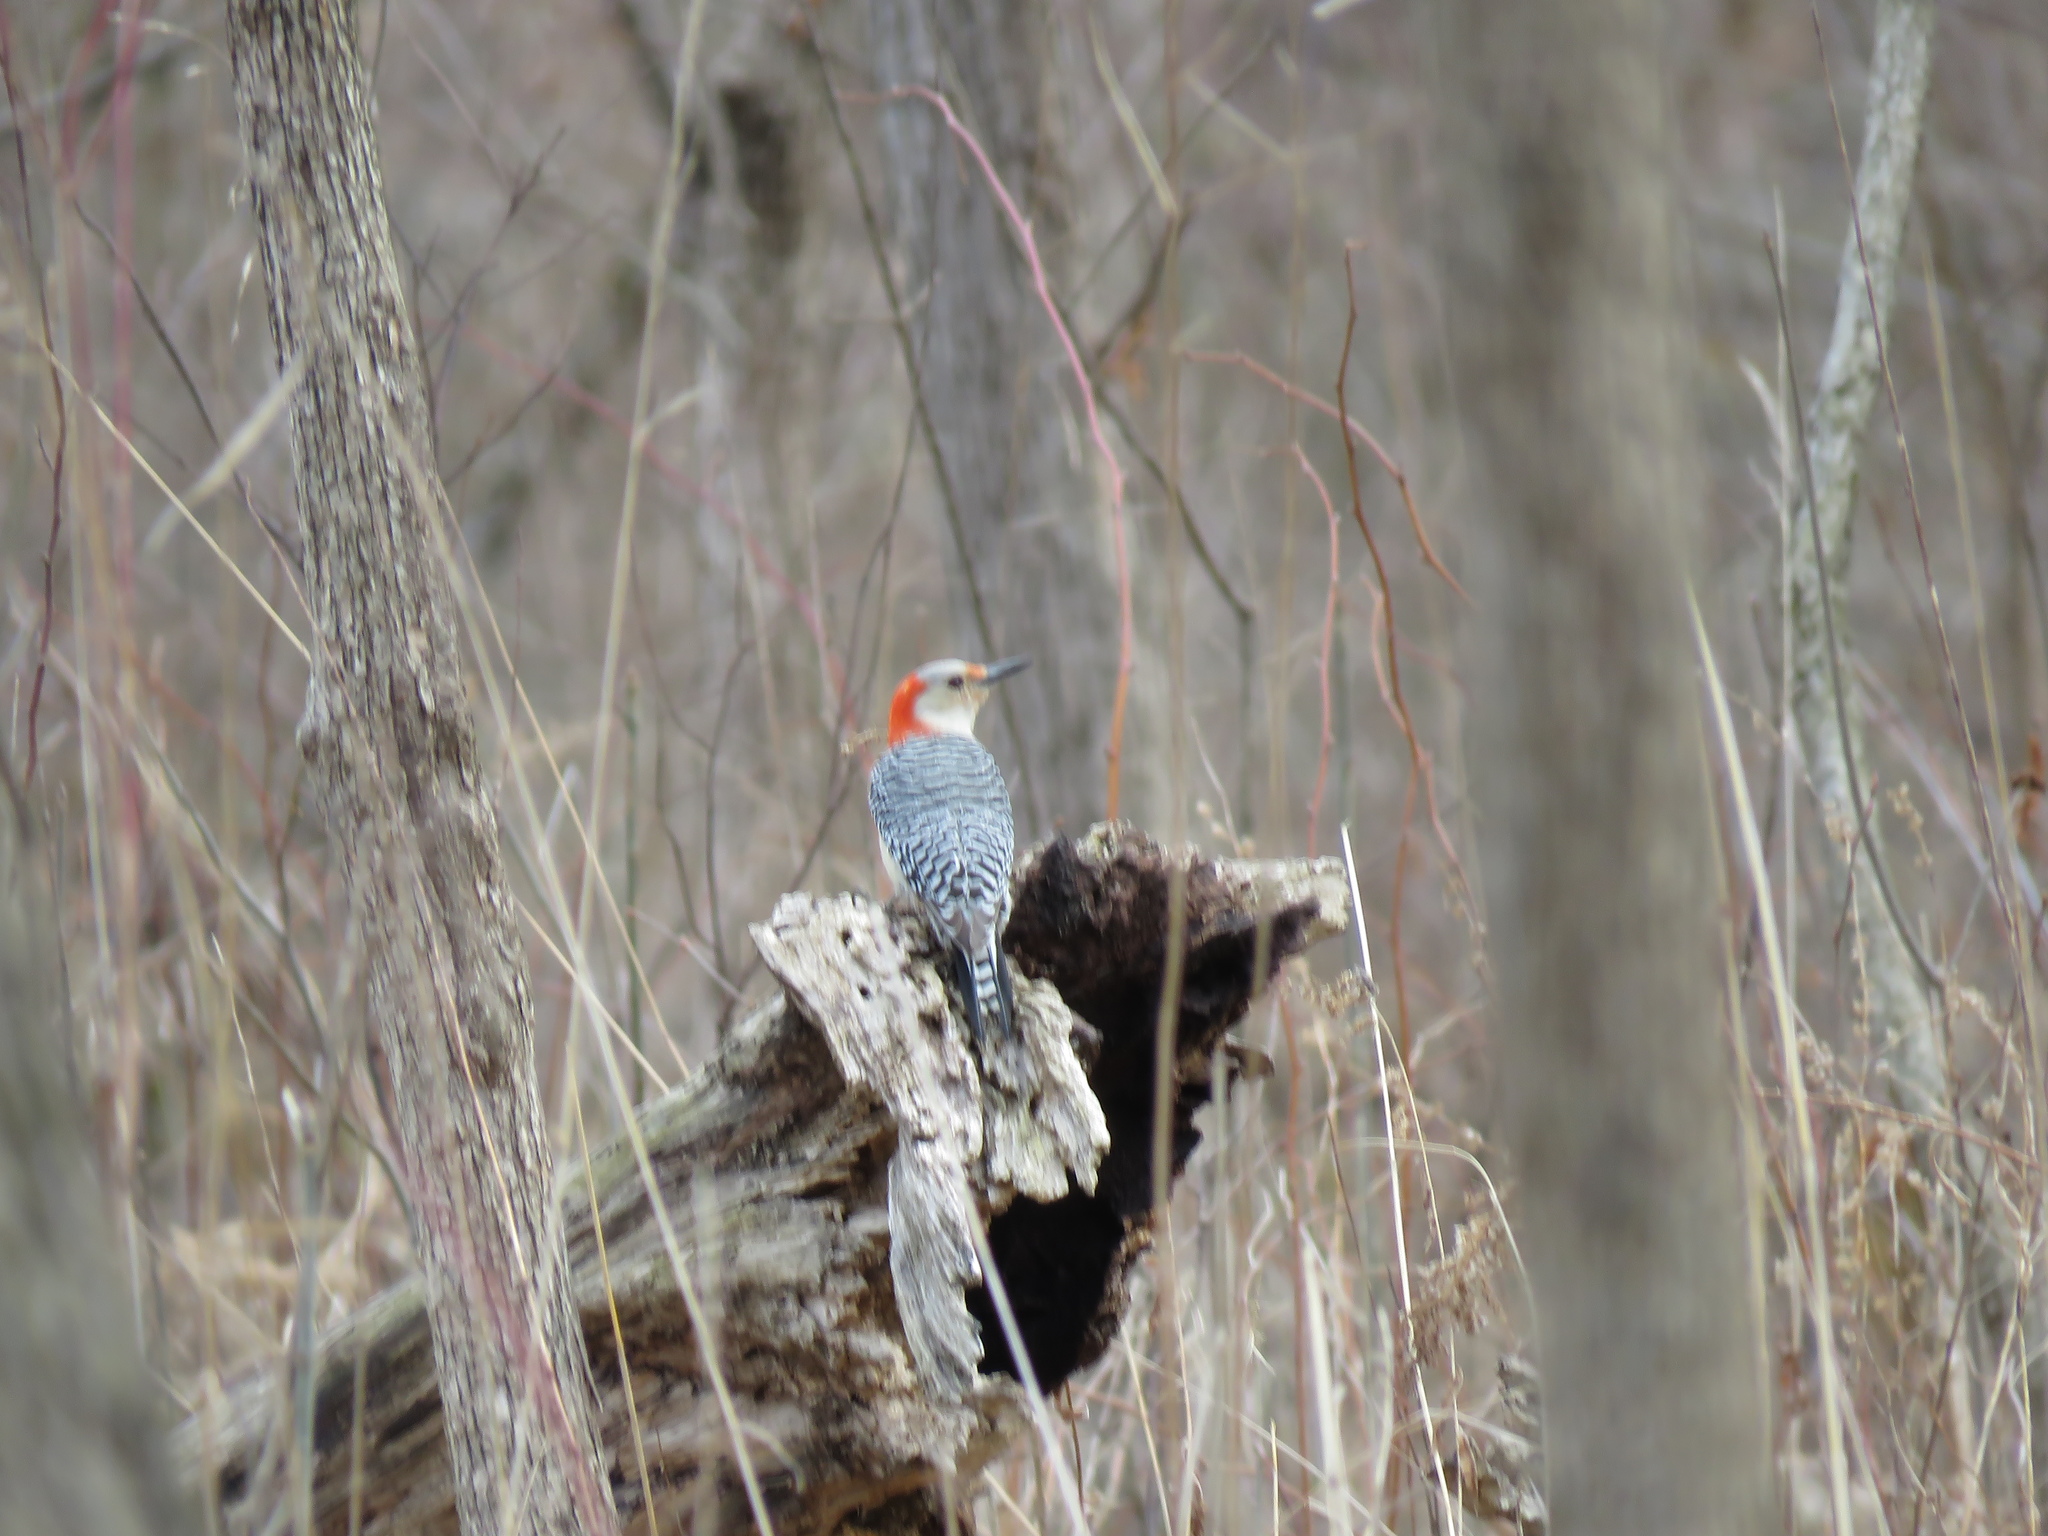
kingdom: Animalia
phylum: Chordata
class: Aves
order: Piciformes
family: Picidae
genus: Melanerpes
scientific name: Melanerpes carolinus
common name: Red-bellied woodpecker
